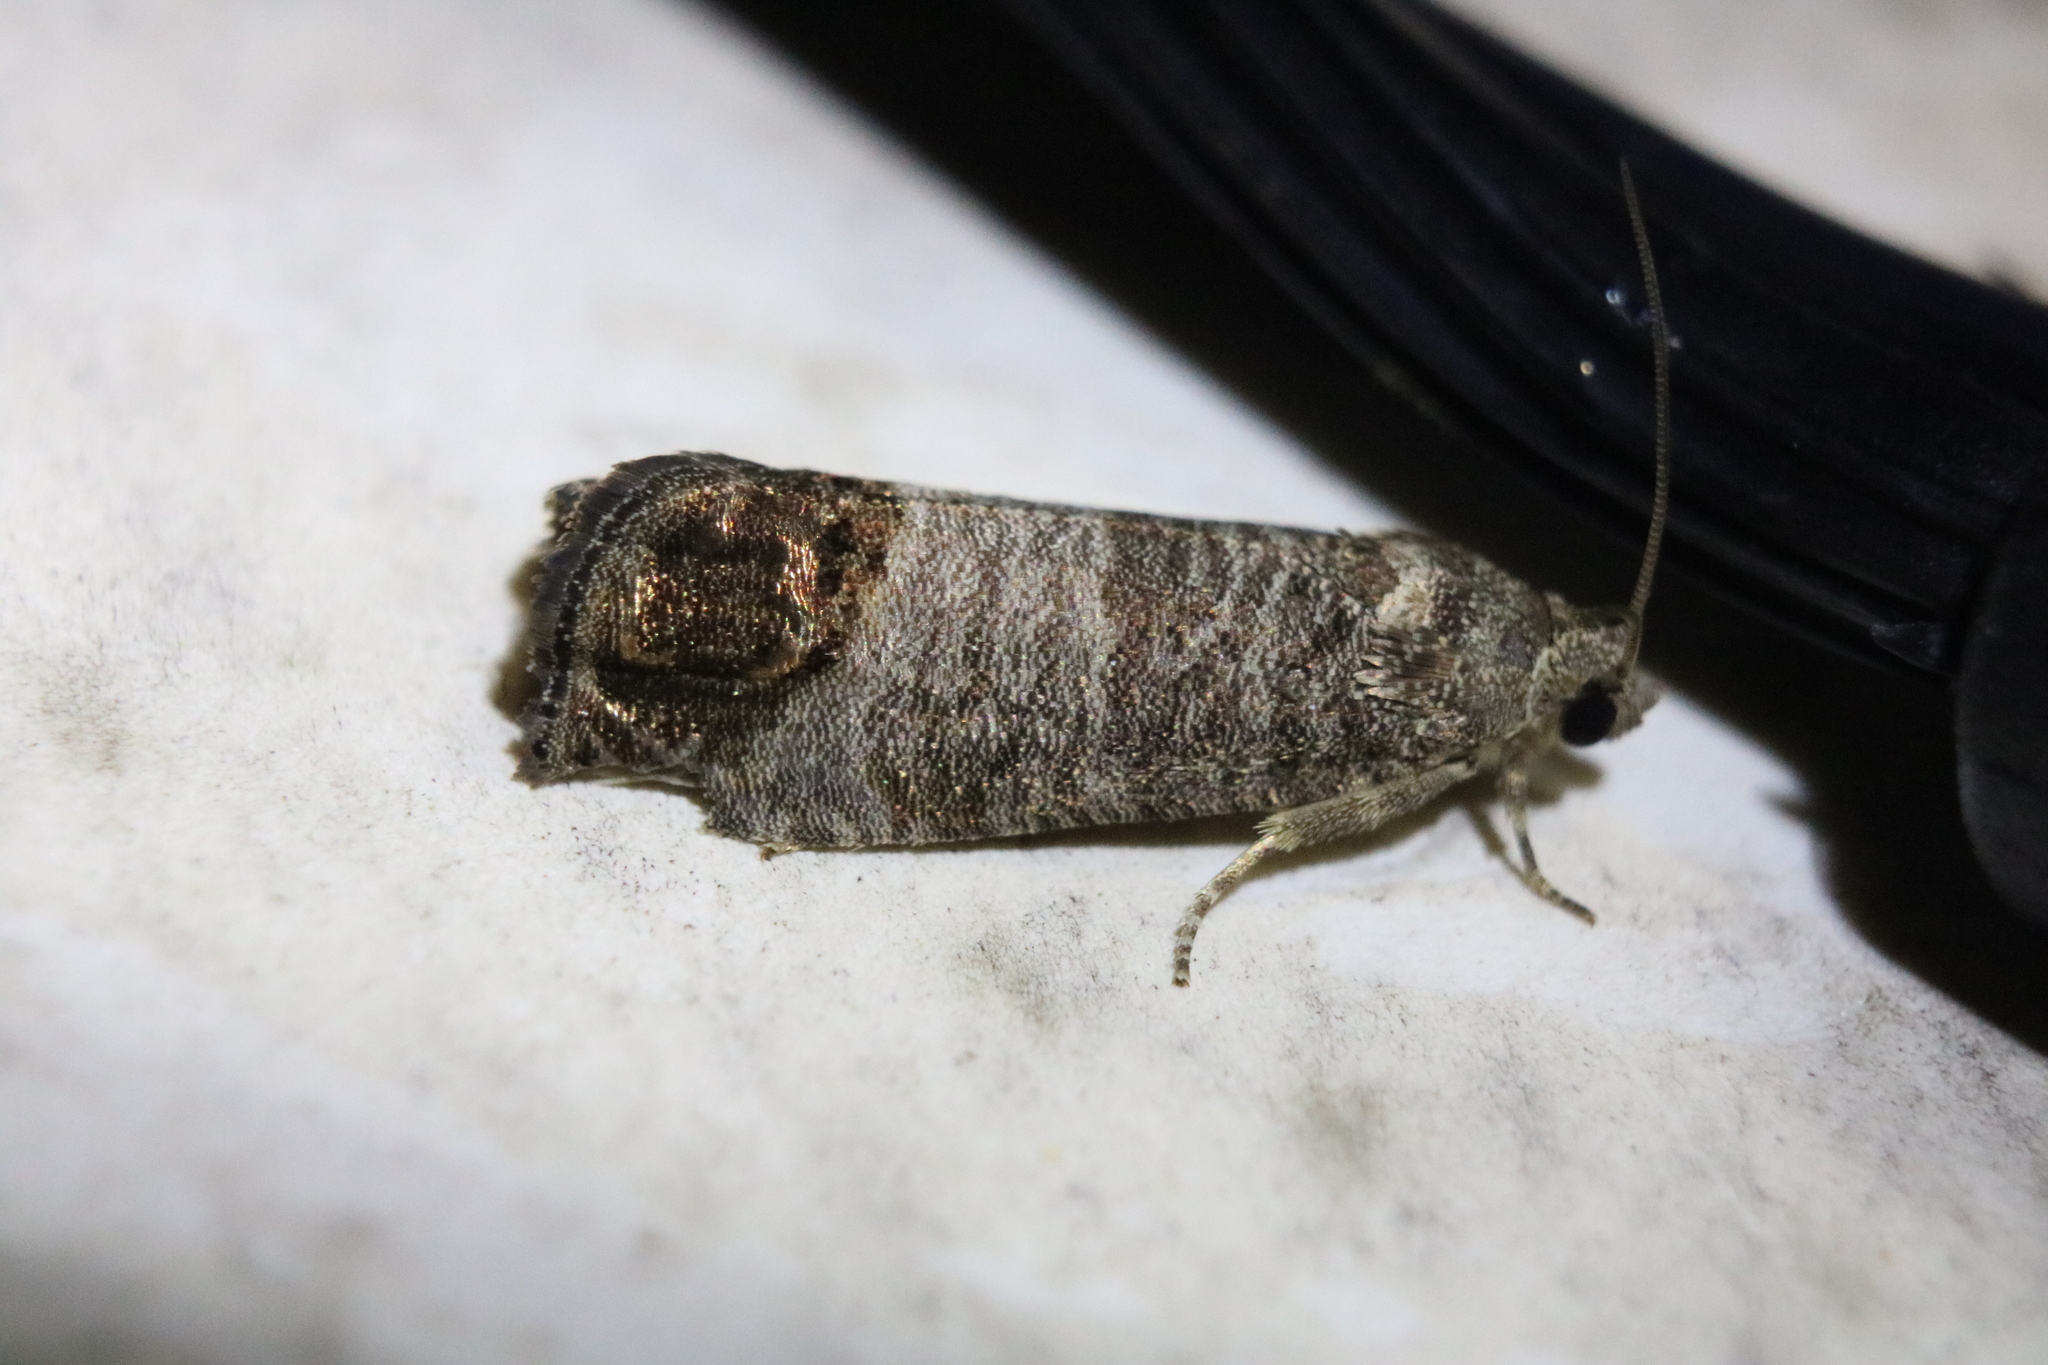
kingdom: Animalia
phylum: Arthropoda
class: Insecta
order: Lepidoptera
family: Tortricidae
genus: Cydia
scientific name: Cydia pomonella
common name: Codling moth
